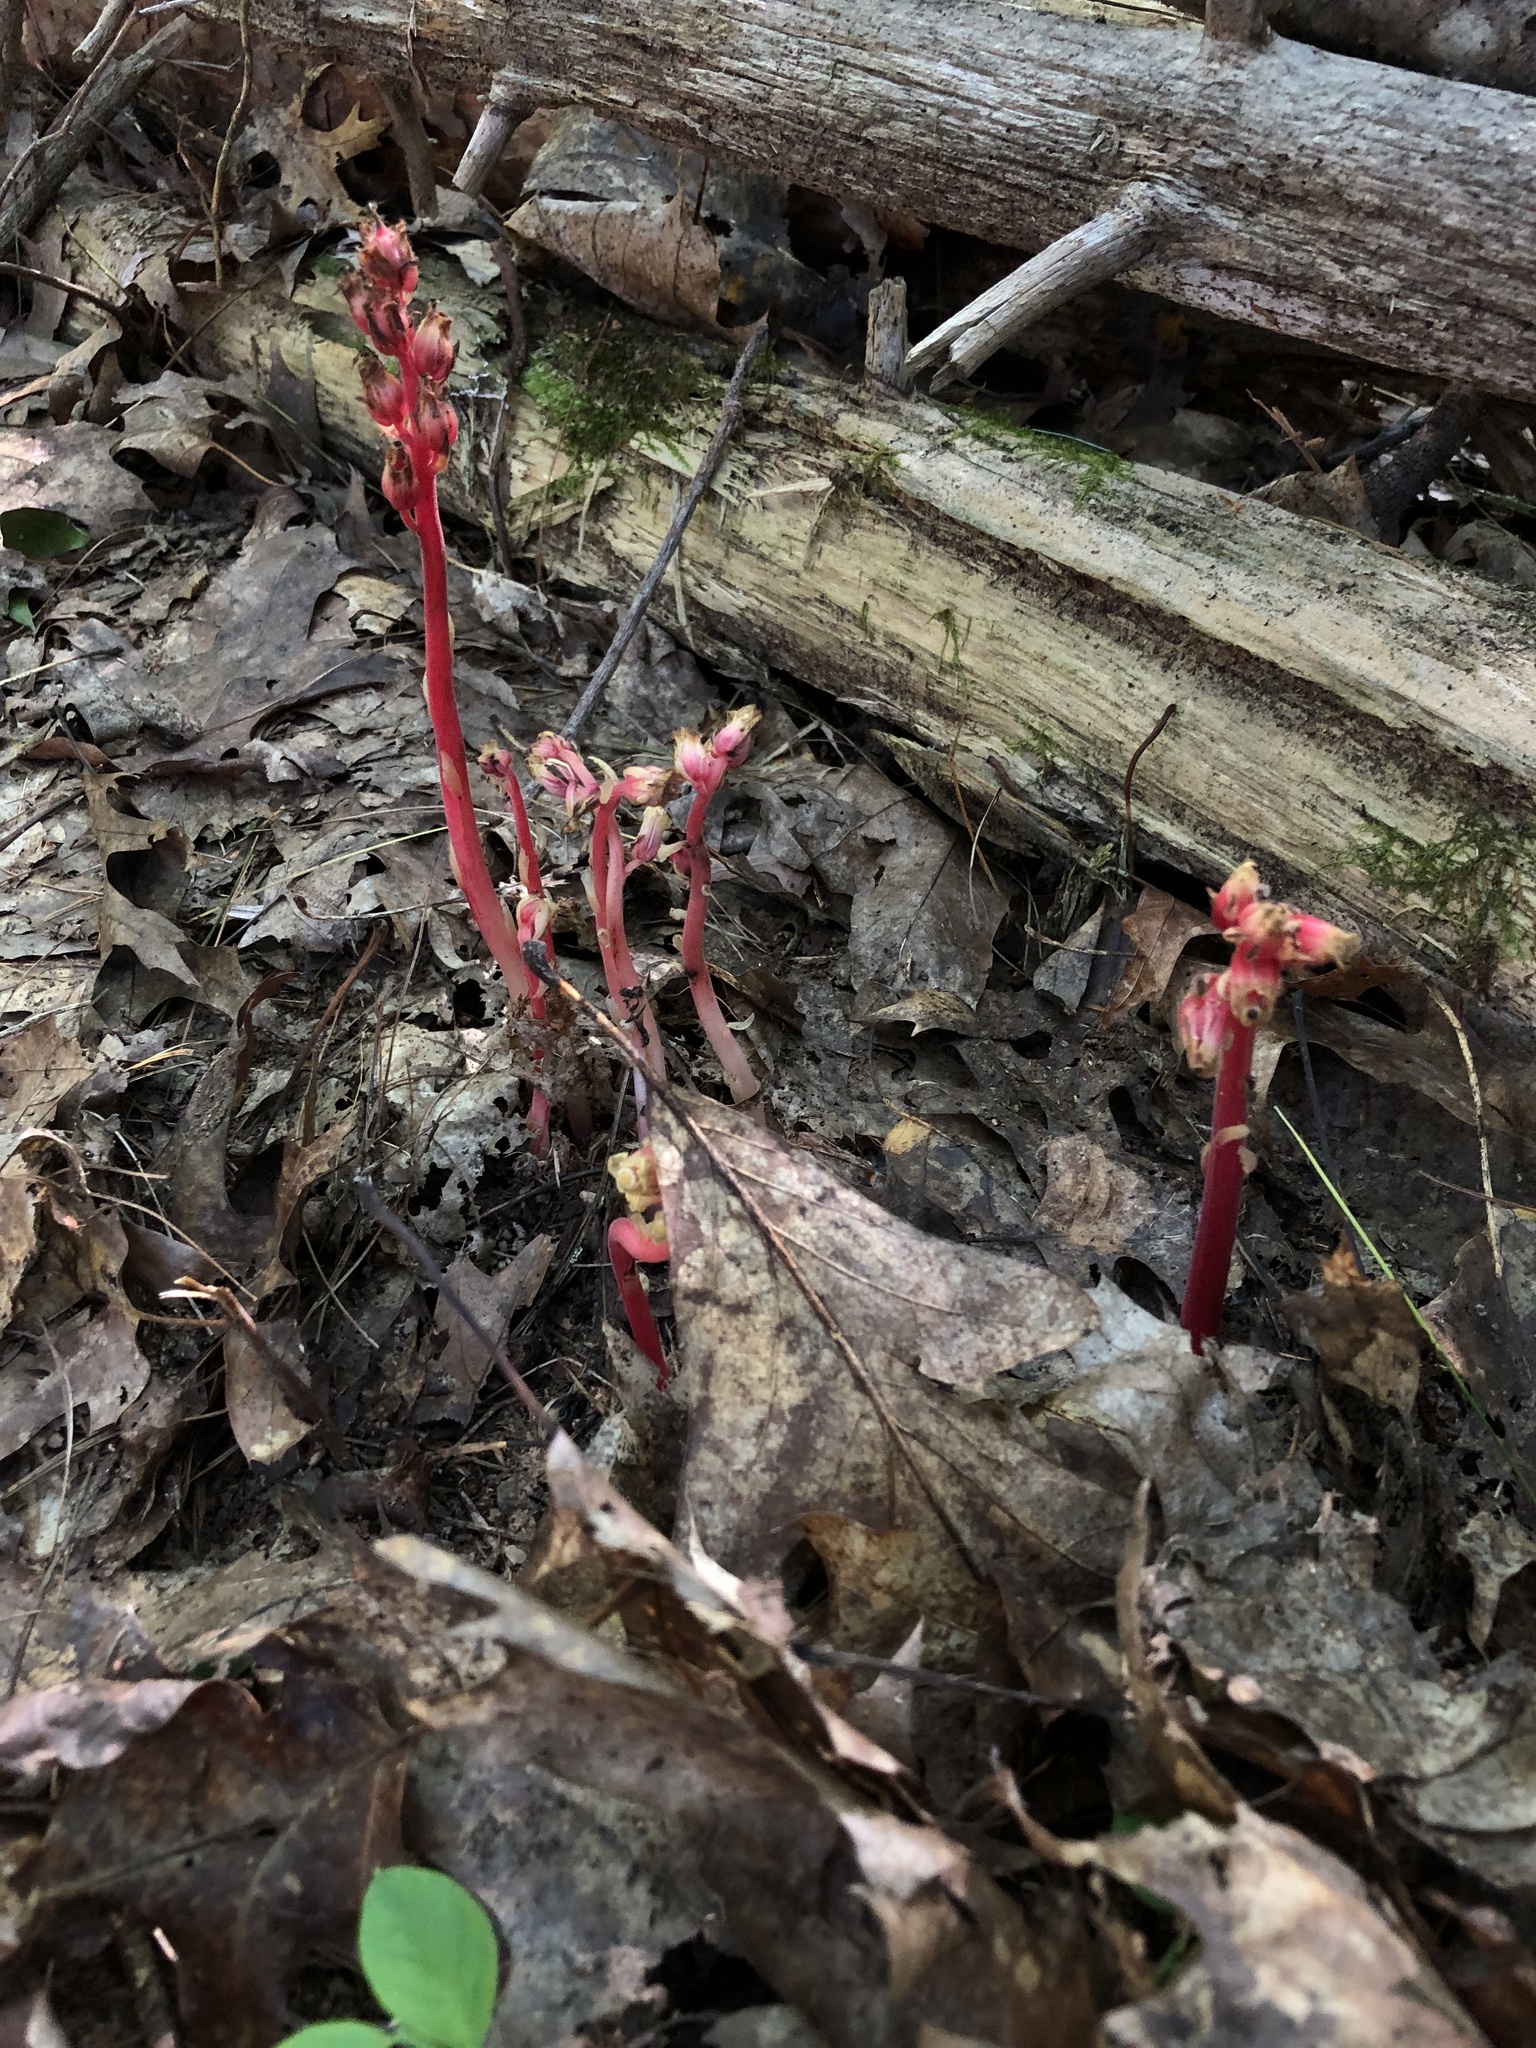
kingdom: Plantae
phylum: Tracheophyta
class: Magnoliopsida
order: Ericales
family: Ericaceae
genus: Hypopitys
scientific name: Hypopitys monotropa
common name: Yellow bird's-nest
